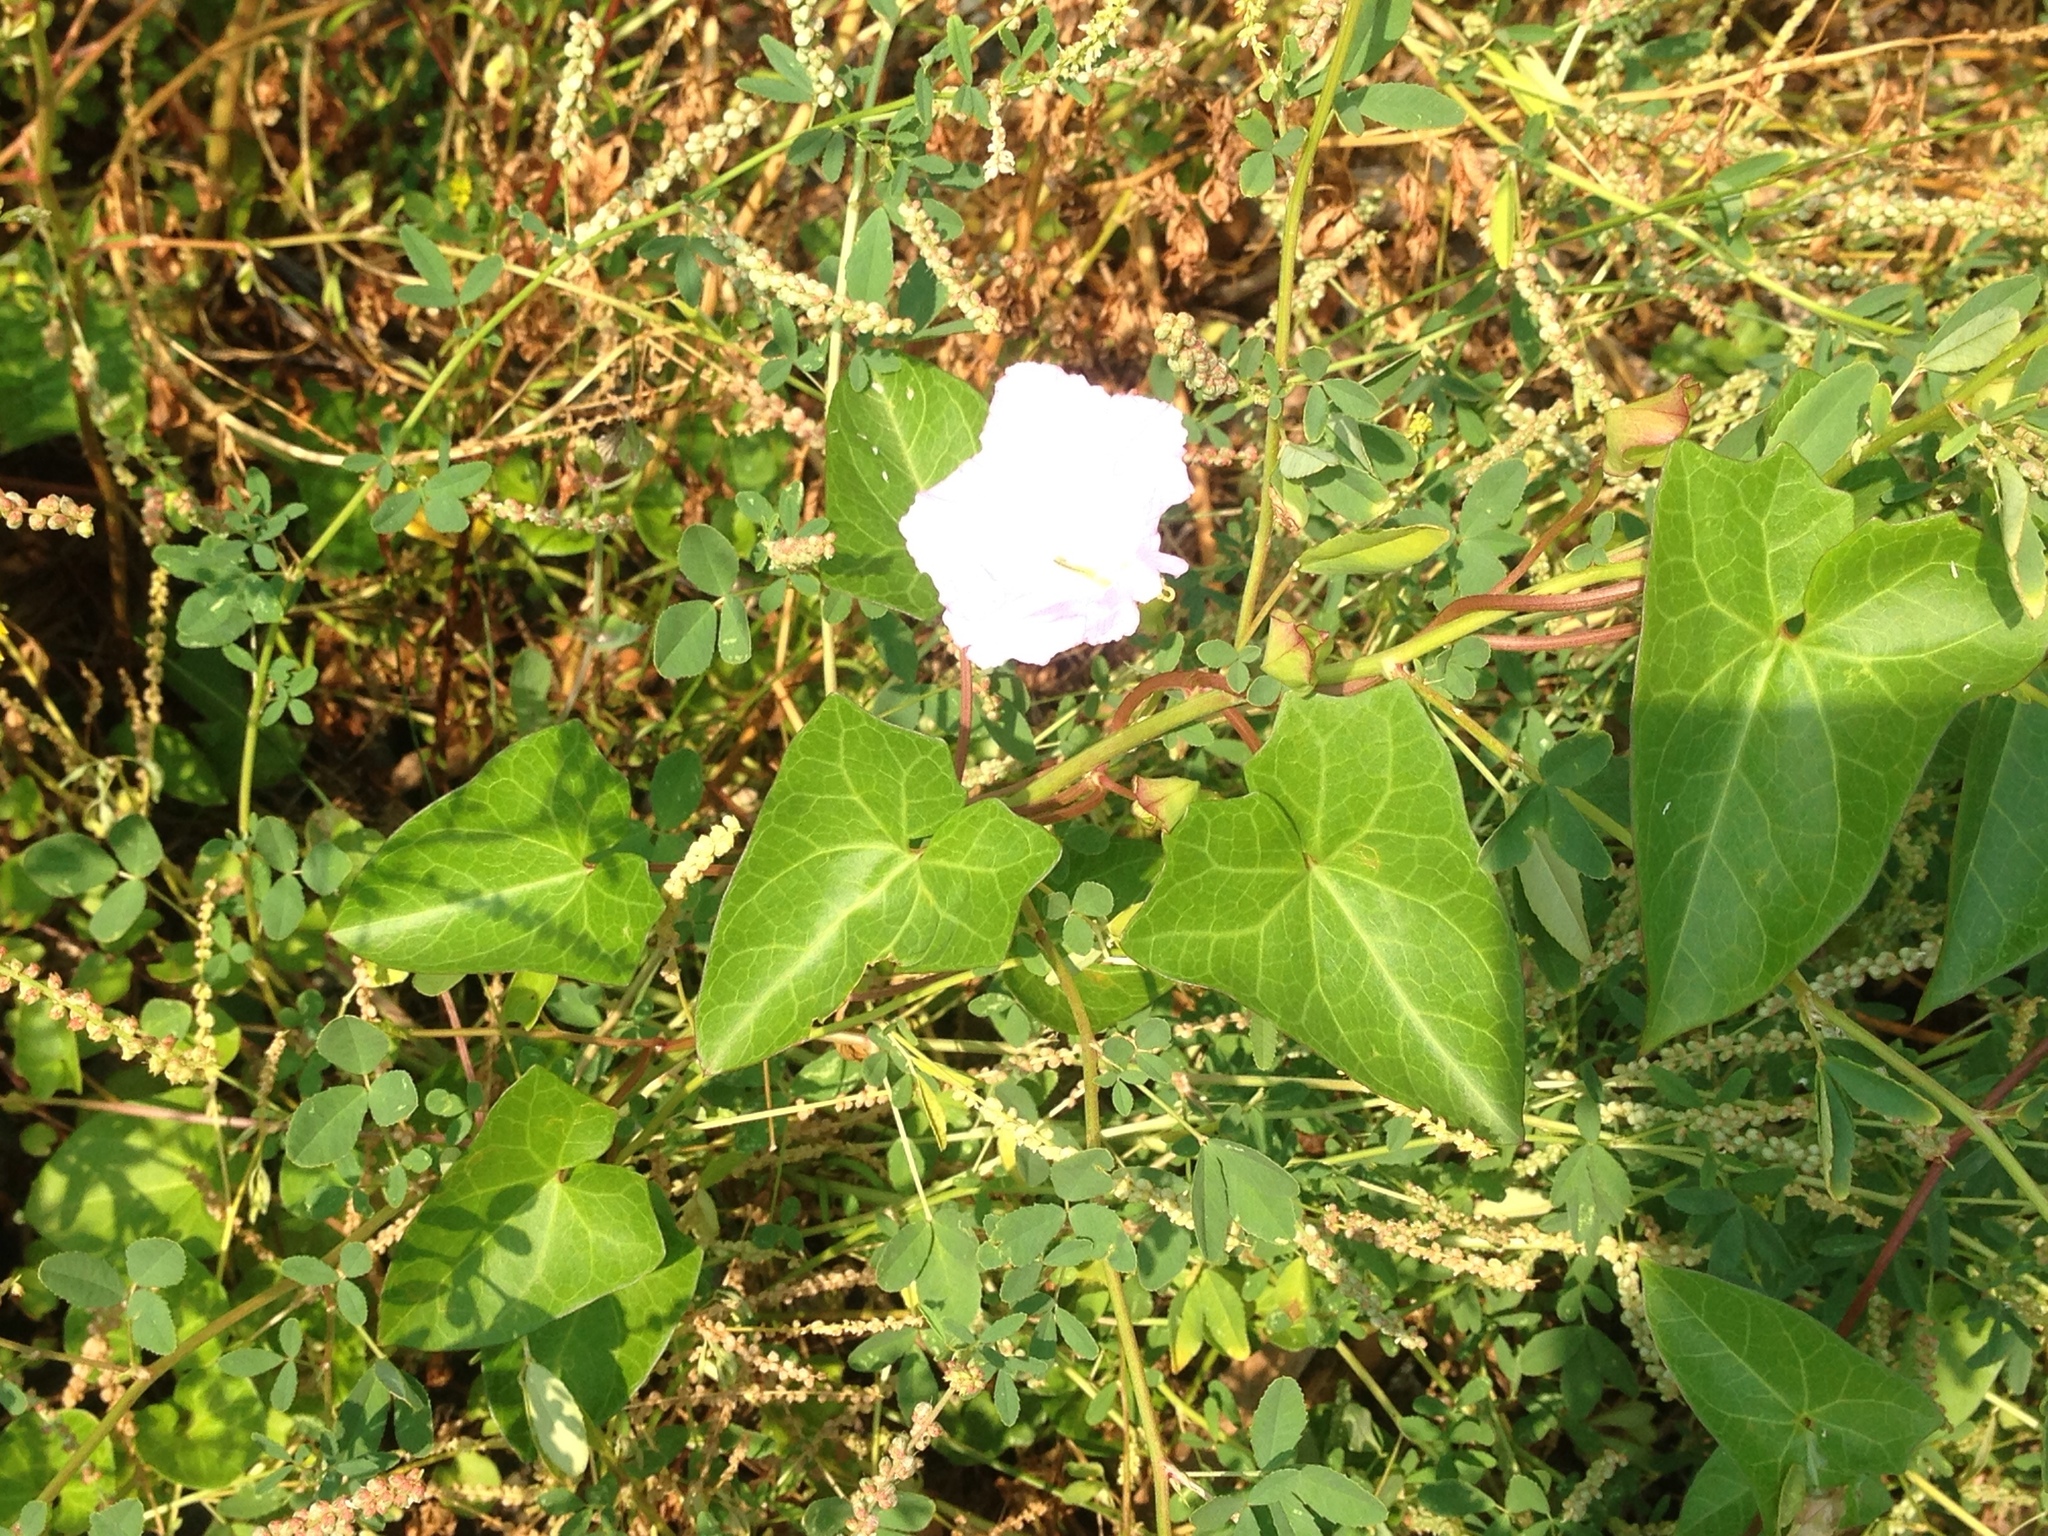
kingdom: Plantae
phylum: Tracheophyta
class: Magnoliopsida
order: Solanales
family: Convolvulaceae
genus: Calystegia
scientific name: Calystegia sepium
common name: Hedge bindweed
